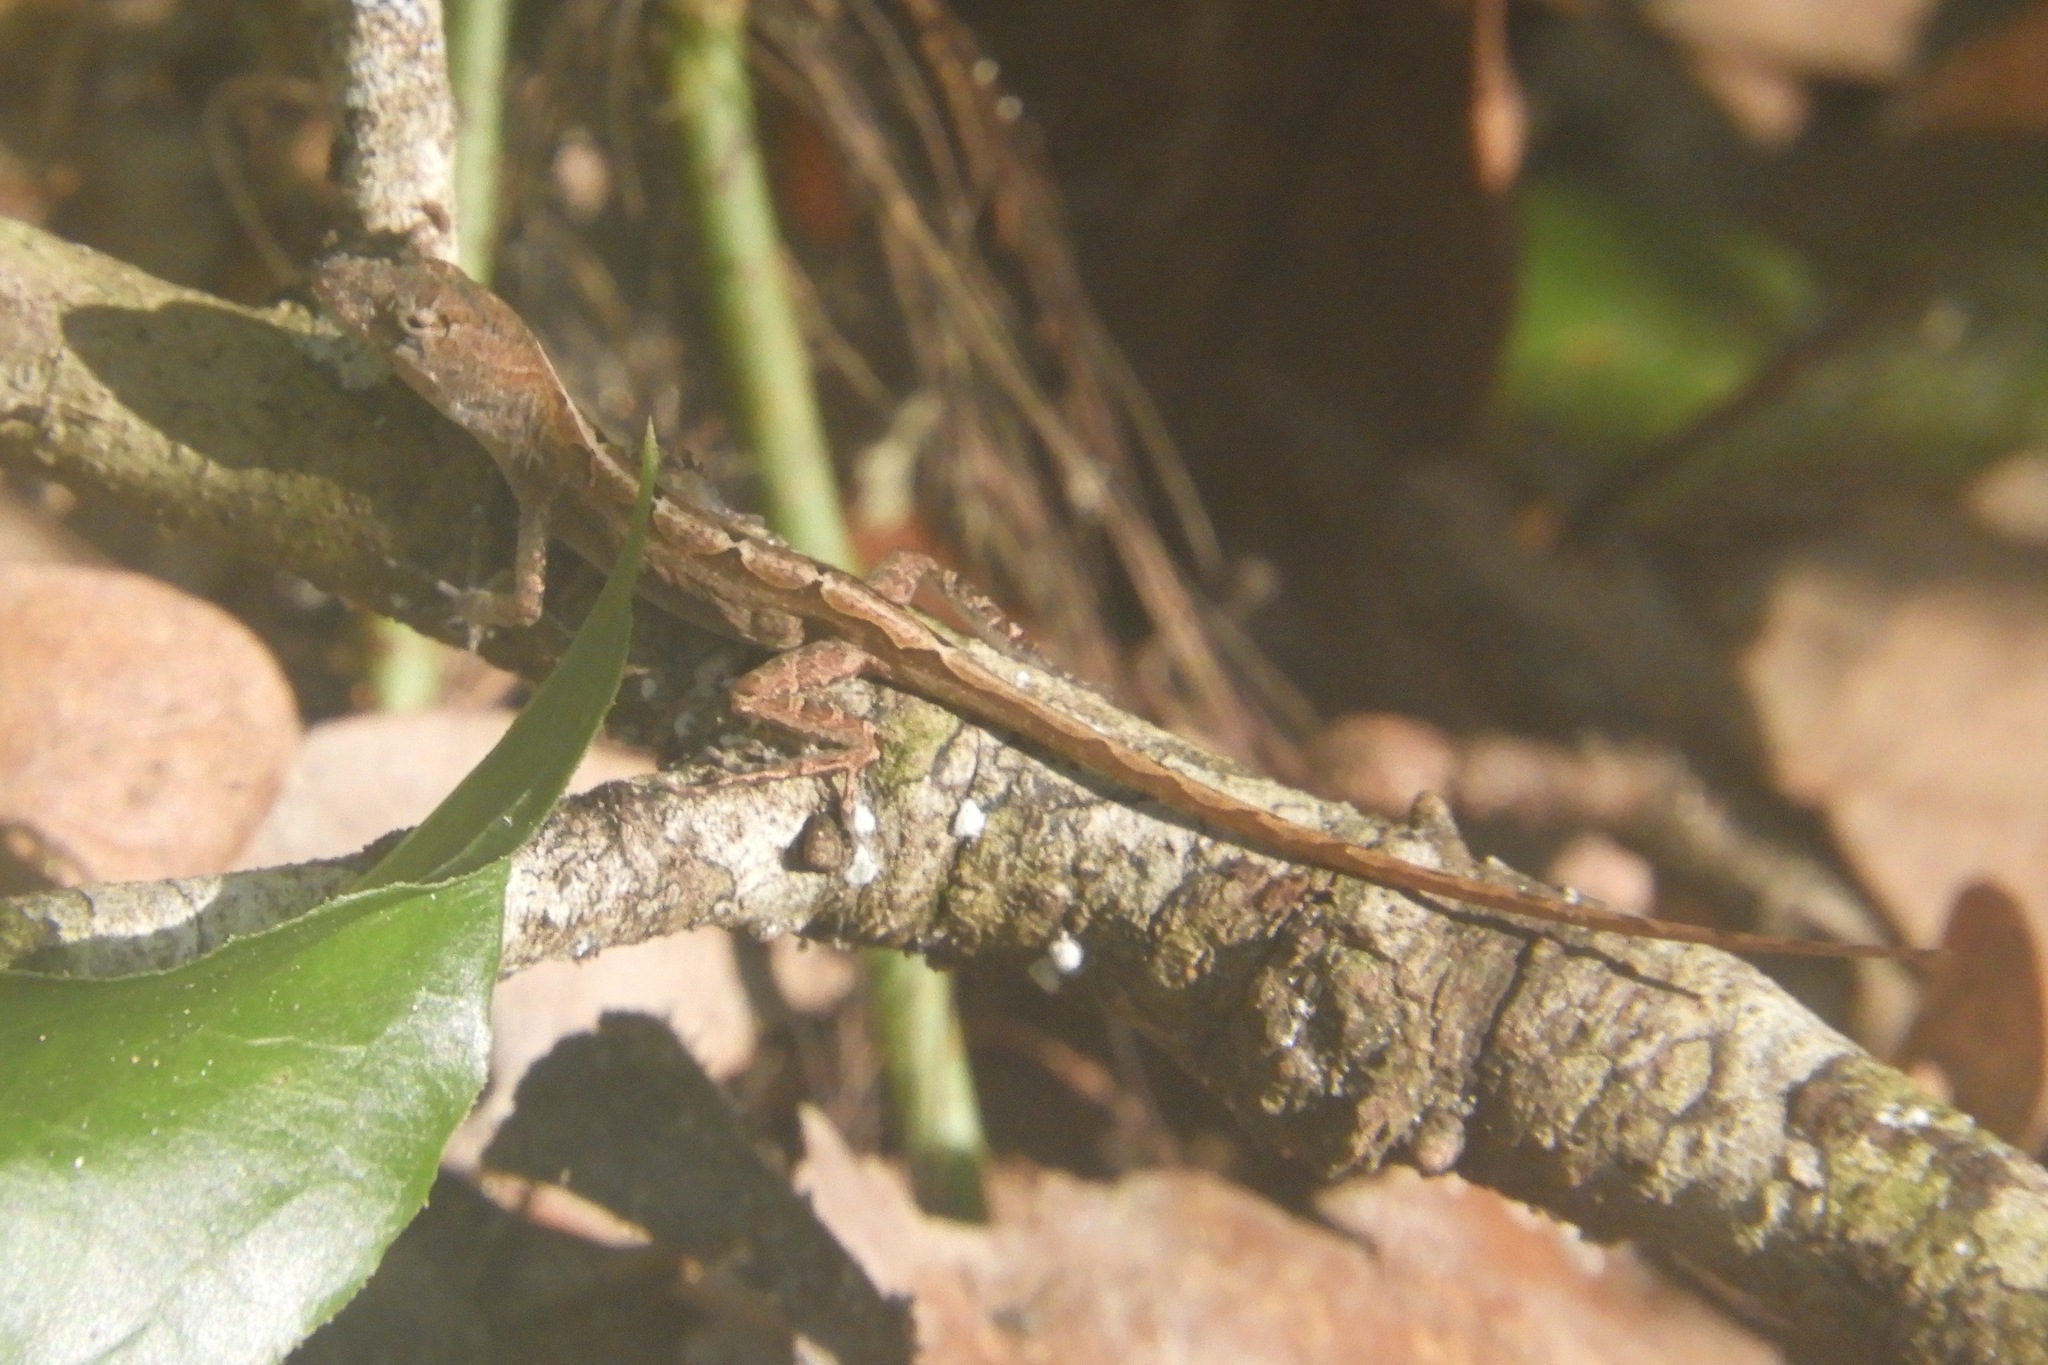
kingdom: Animalia
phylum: Chordata
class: Squamata
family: Dactyloidae
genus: Anolis
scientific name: Anolis sagrei
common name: Brown anole
